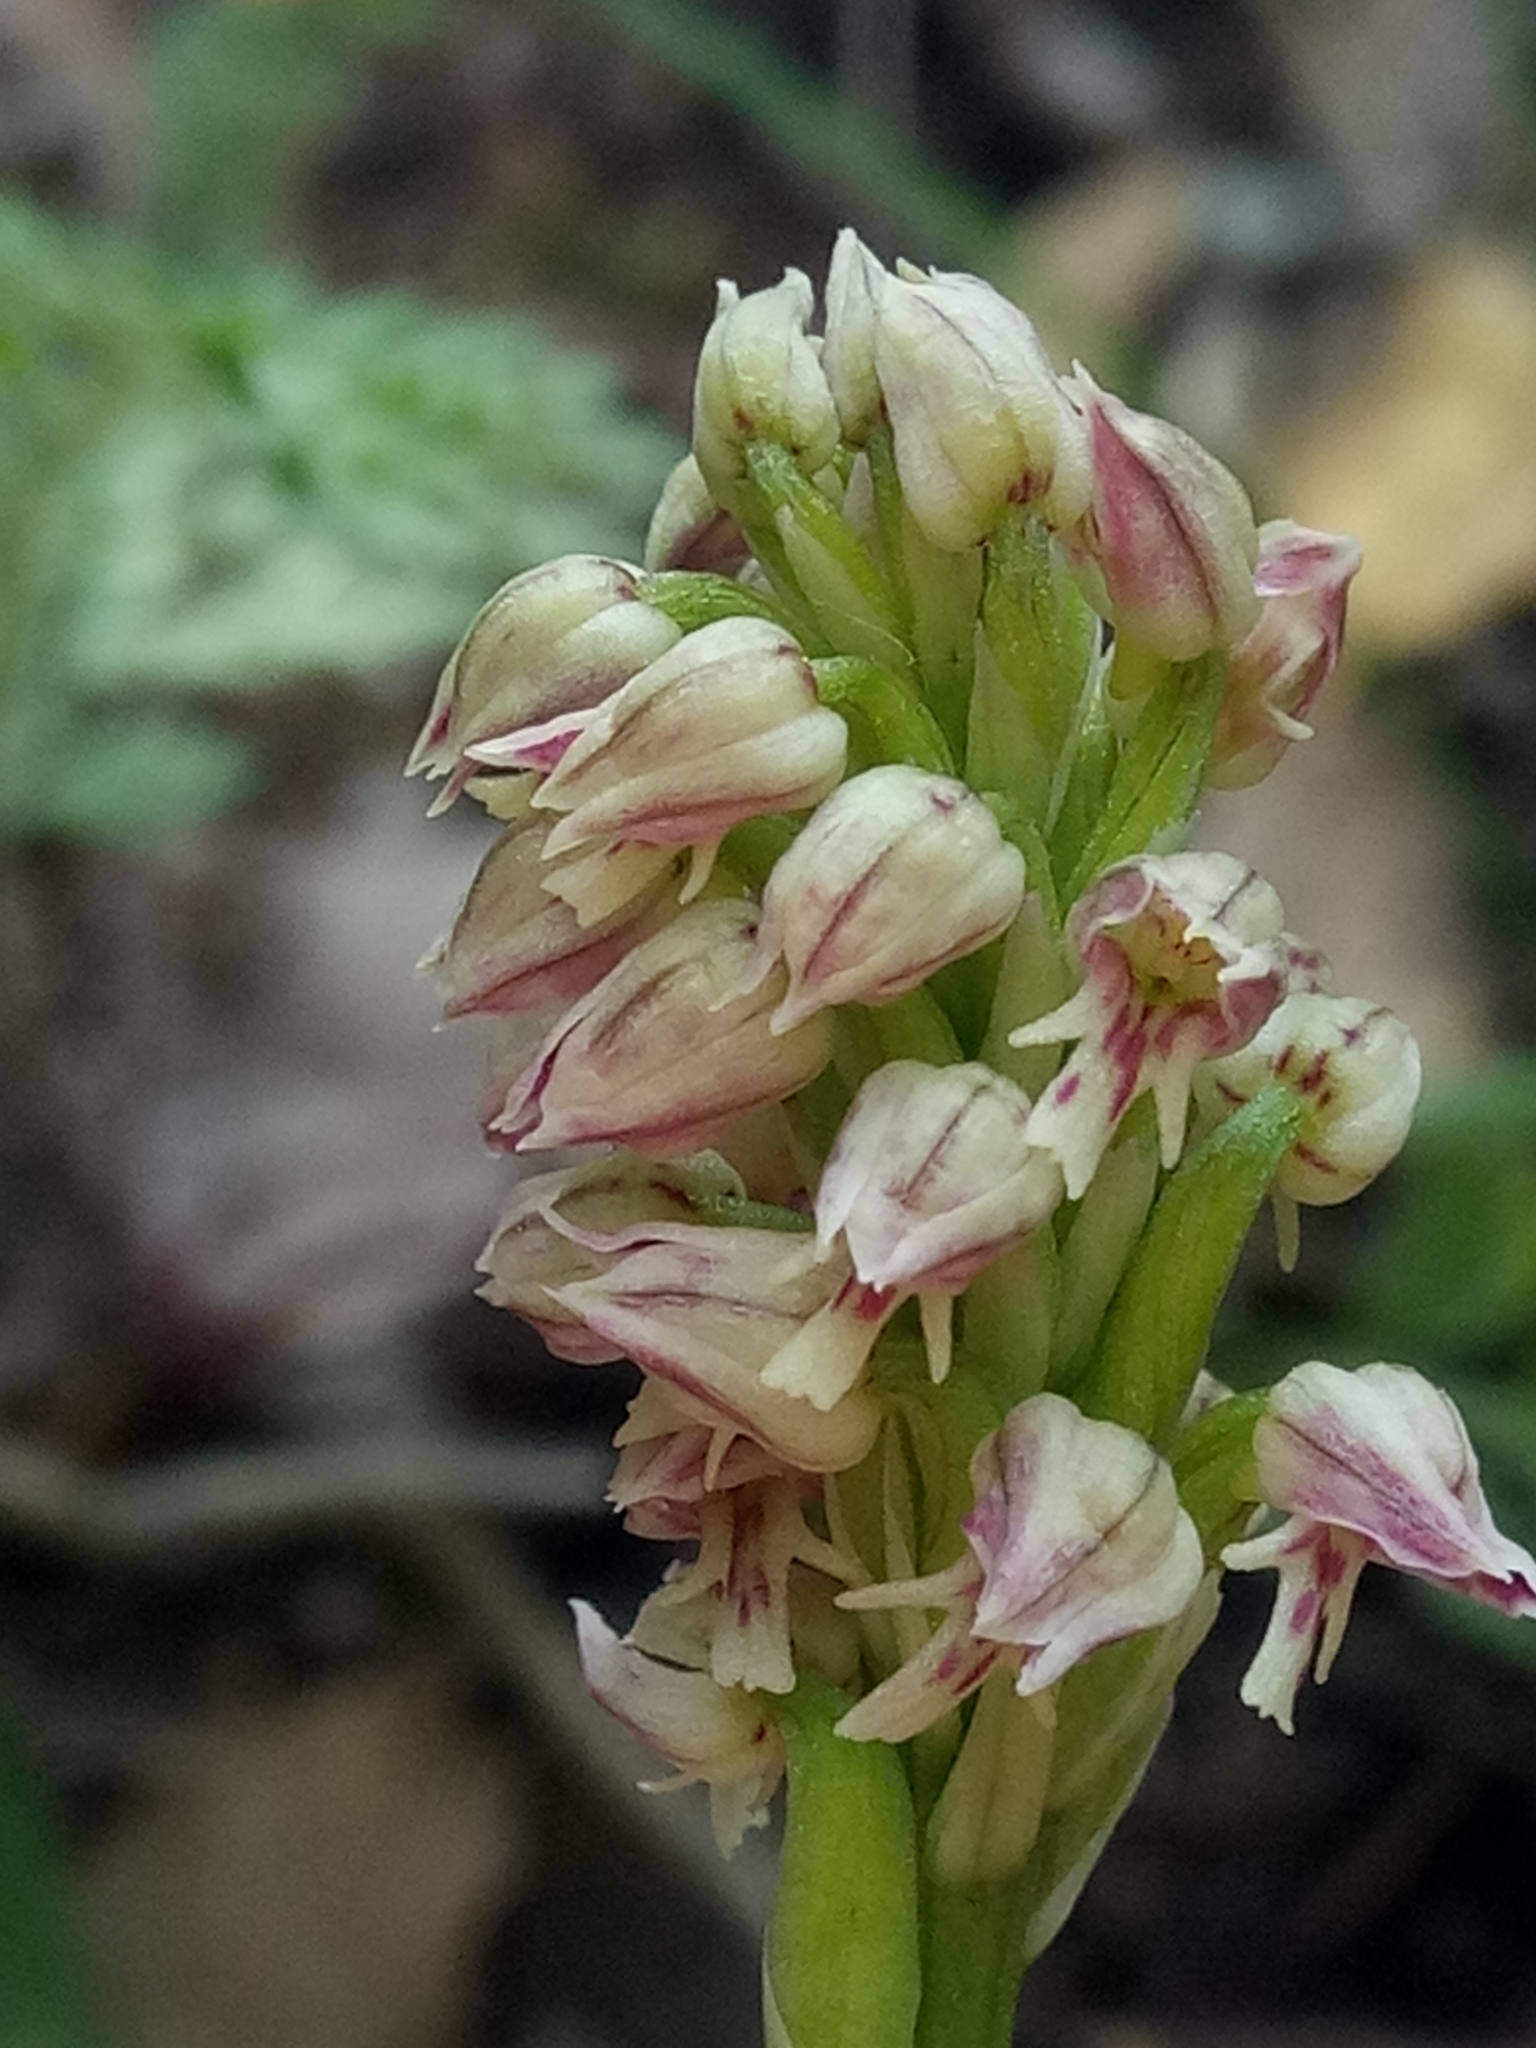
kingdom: Plantae
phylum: Tracheophyta
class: Liliopsida
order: Asparagales
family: Orchidaceae
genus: Neotinea
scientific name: Neotinea maculata
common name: Dense-flowered orchid
